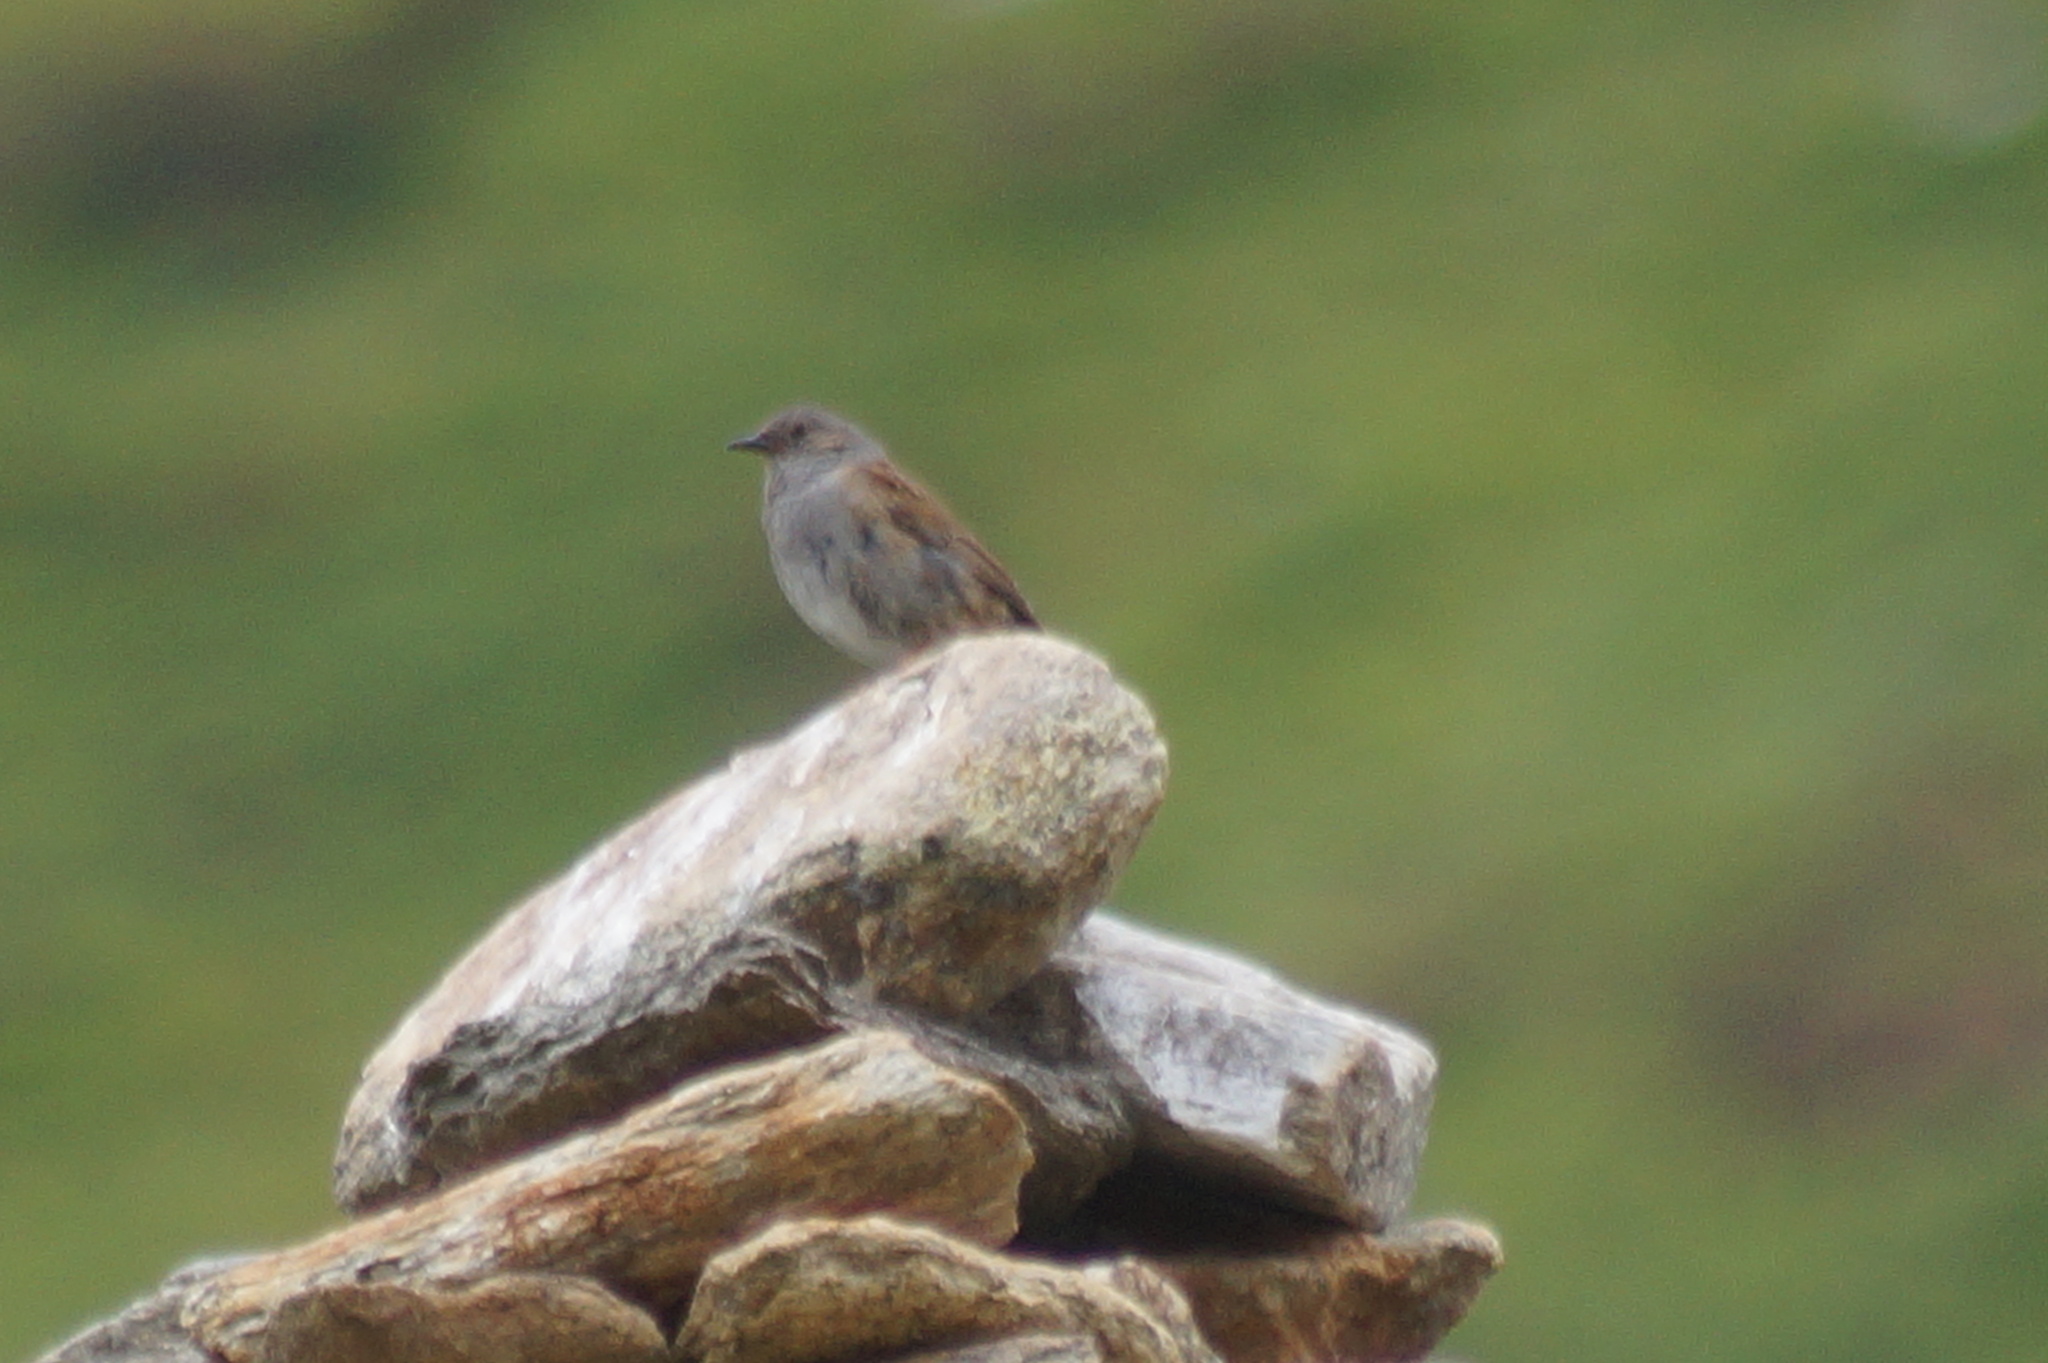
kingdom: Animalia
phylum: Chordata
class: Aves
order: Passeriformes
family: Prunellidae
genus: Prunella
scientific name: Prunella modularis
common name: Dunnock
